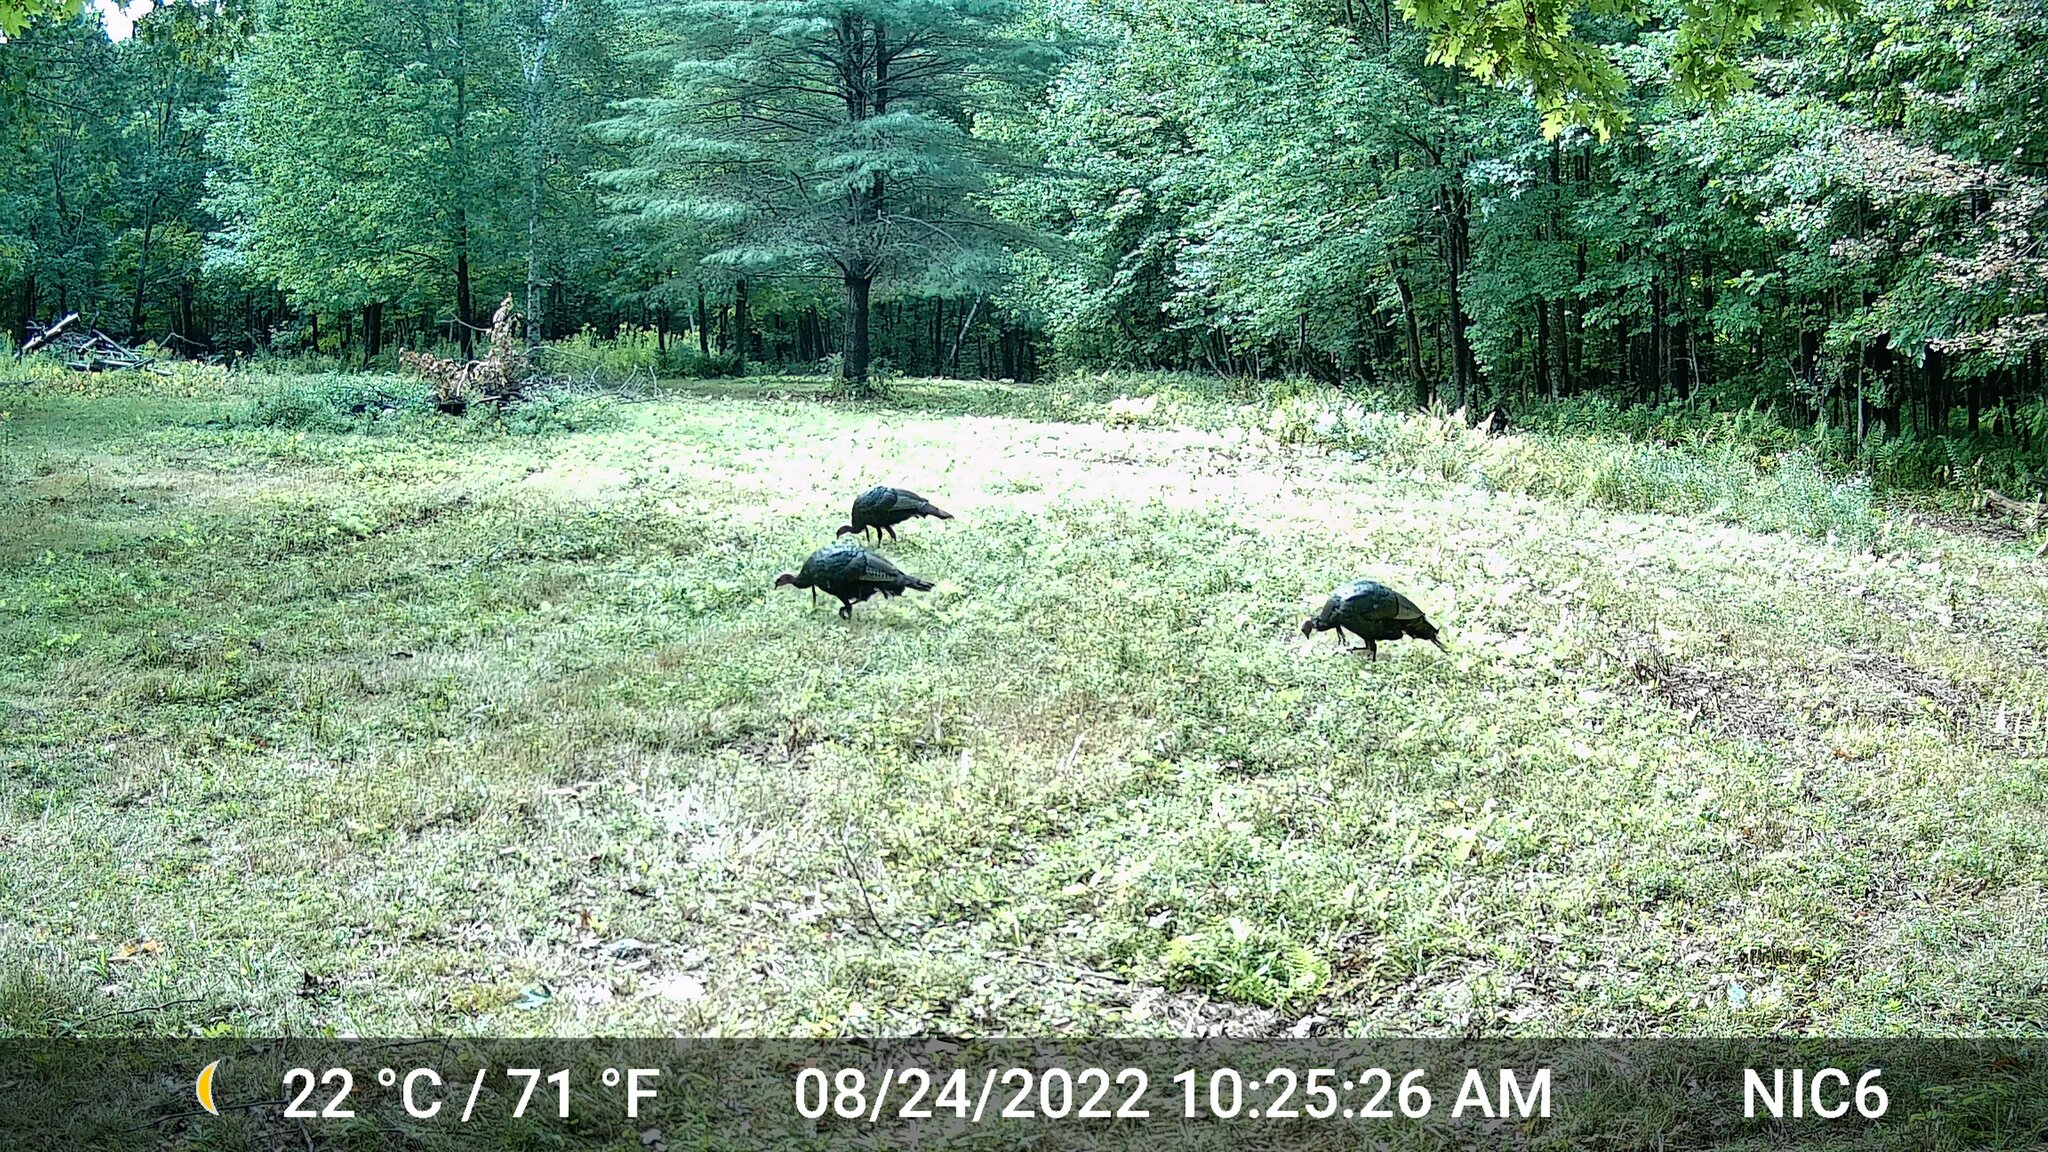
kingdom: Animalia
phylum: Chordata
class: Aves
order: Galliformes
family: Phasianidae
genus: Meleagris
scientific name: Meleagris gallopavo
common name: Wild turkey
